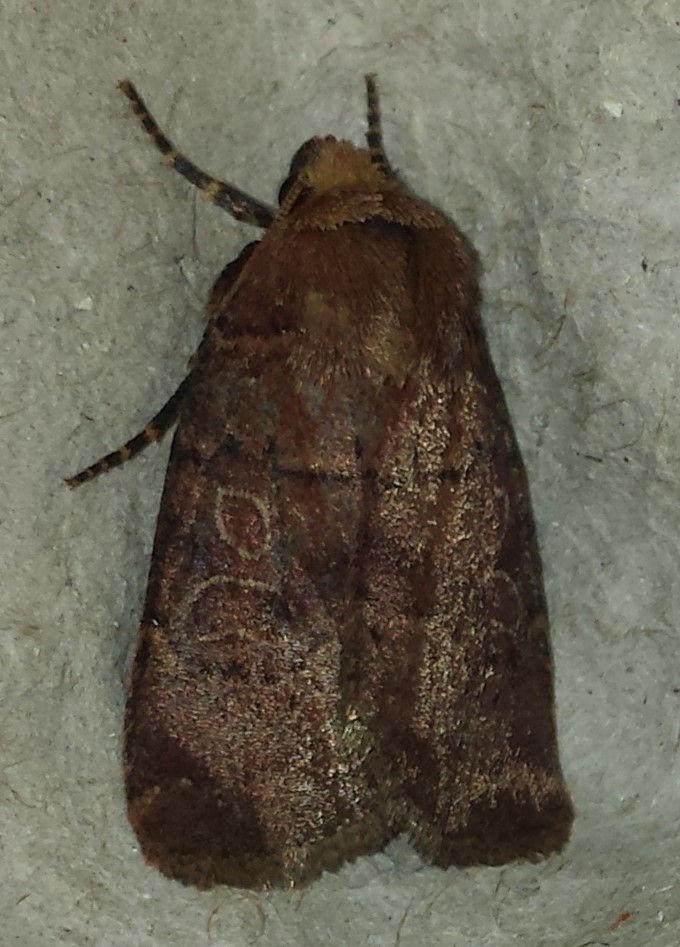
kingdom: Animalia
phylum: Arthropoda
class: Insecta
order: Lepidoptera
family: Noctuidae
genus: Trichopolia
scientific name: Trichopolia
